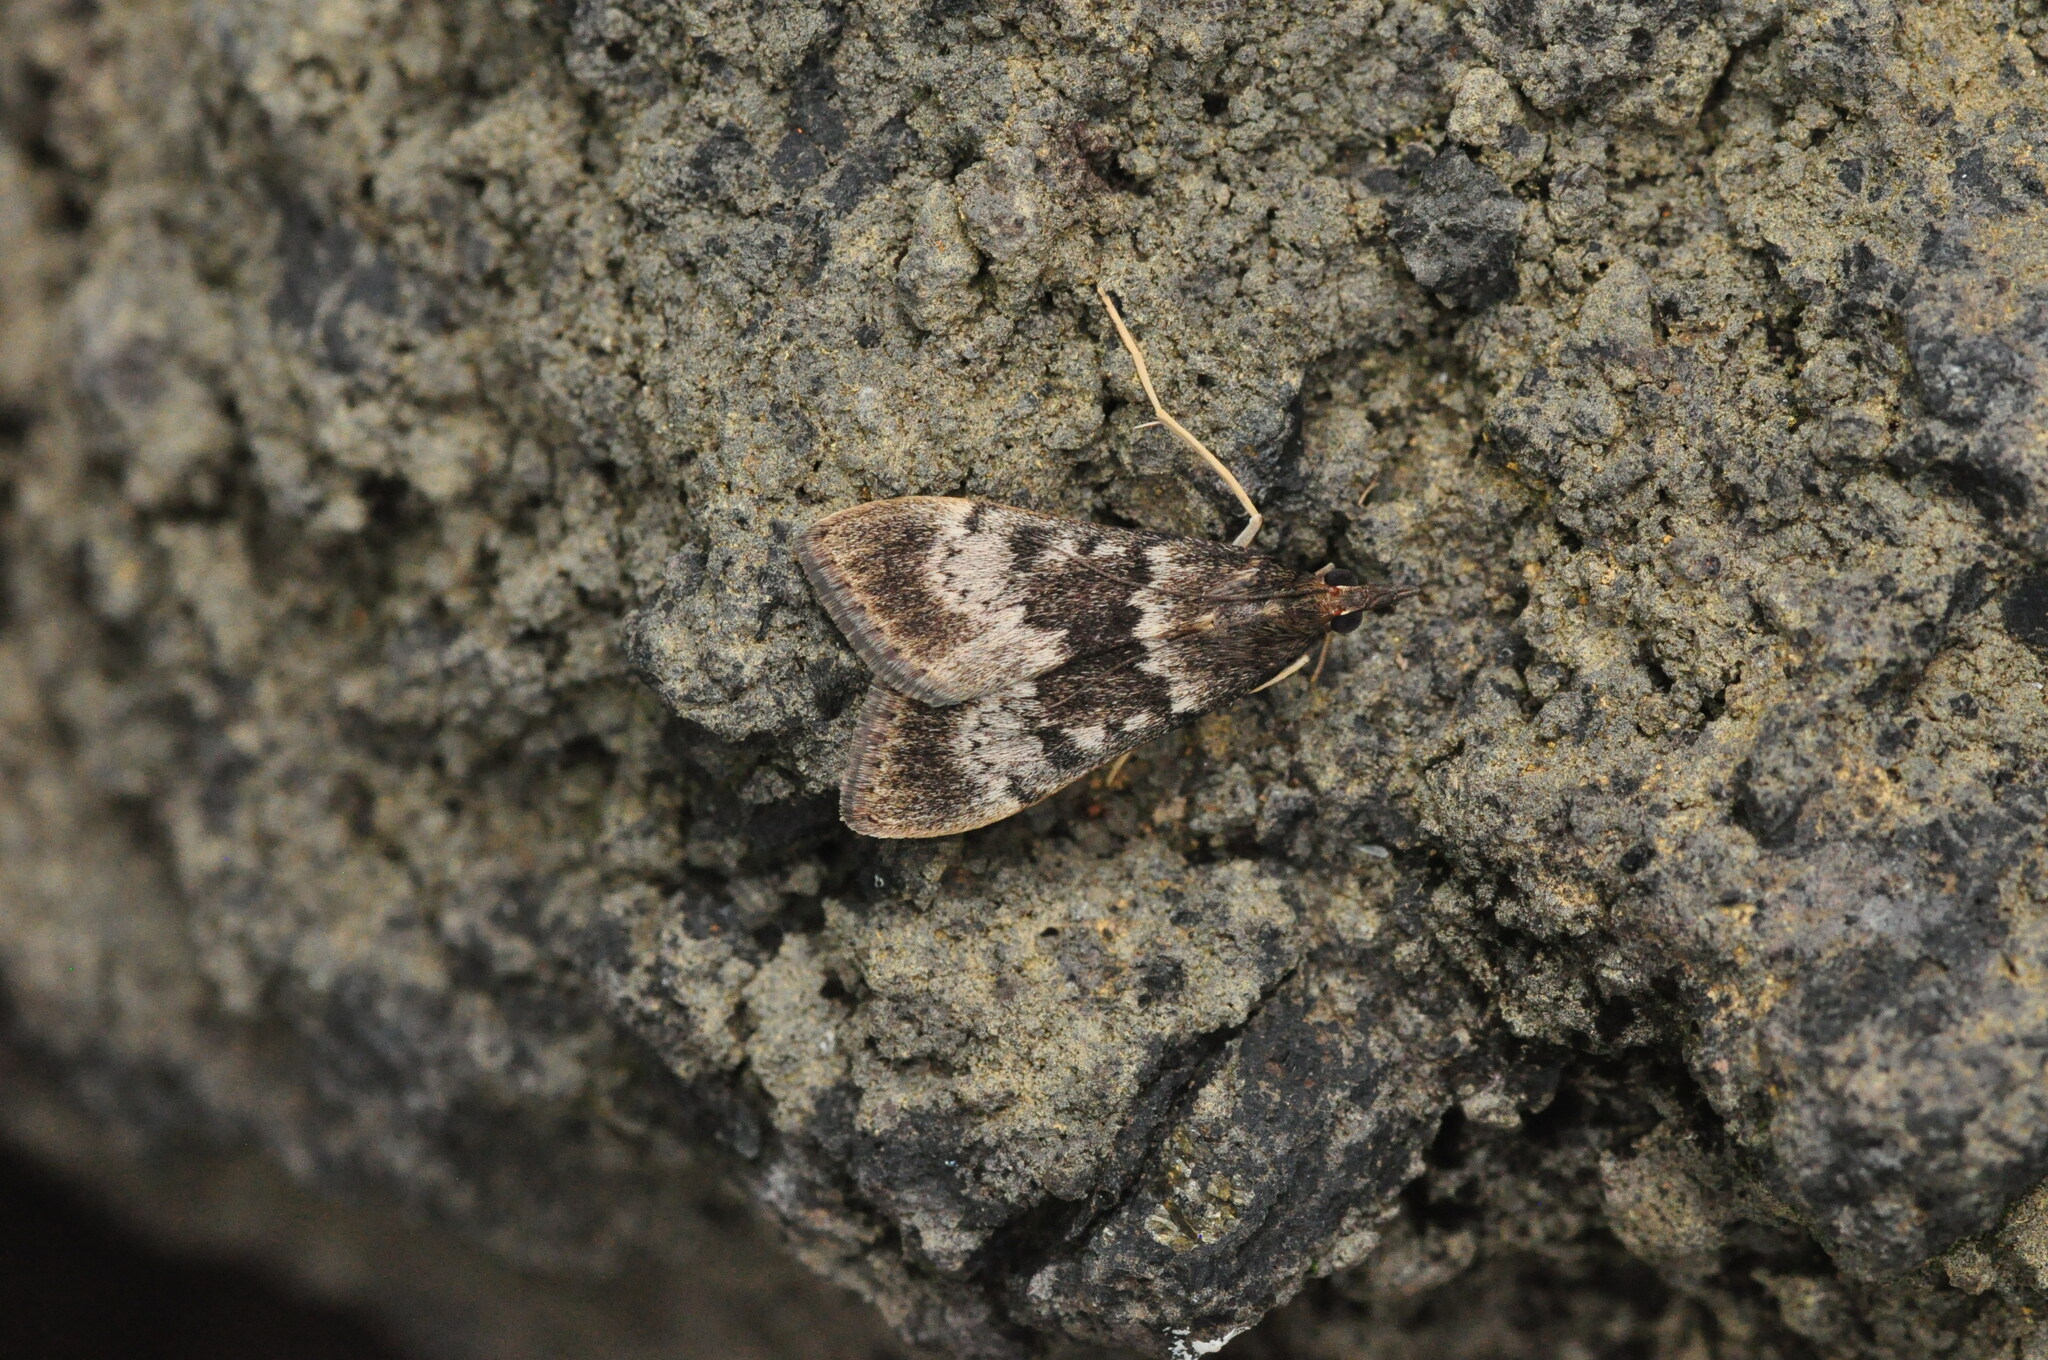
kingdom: Animalia
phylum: Arthropoda
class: Insecta
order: Lepidoptera
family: Crambidae
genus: Uresiphita
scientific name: Uresiphita gilvata
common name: Yellow-underwing pearl
